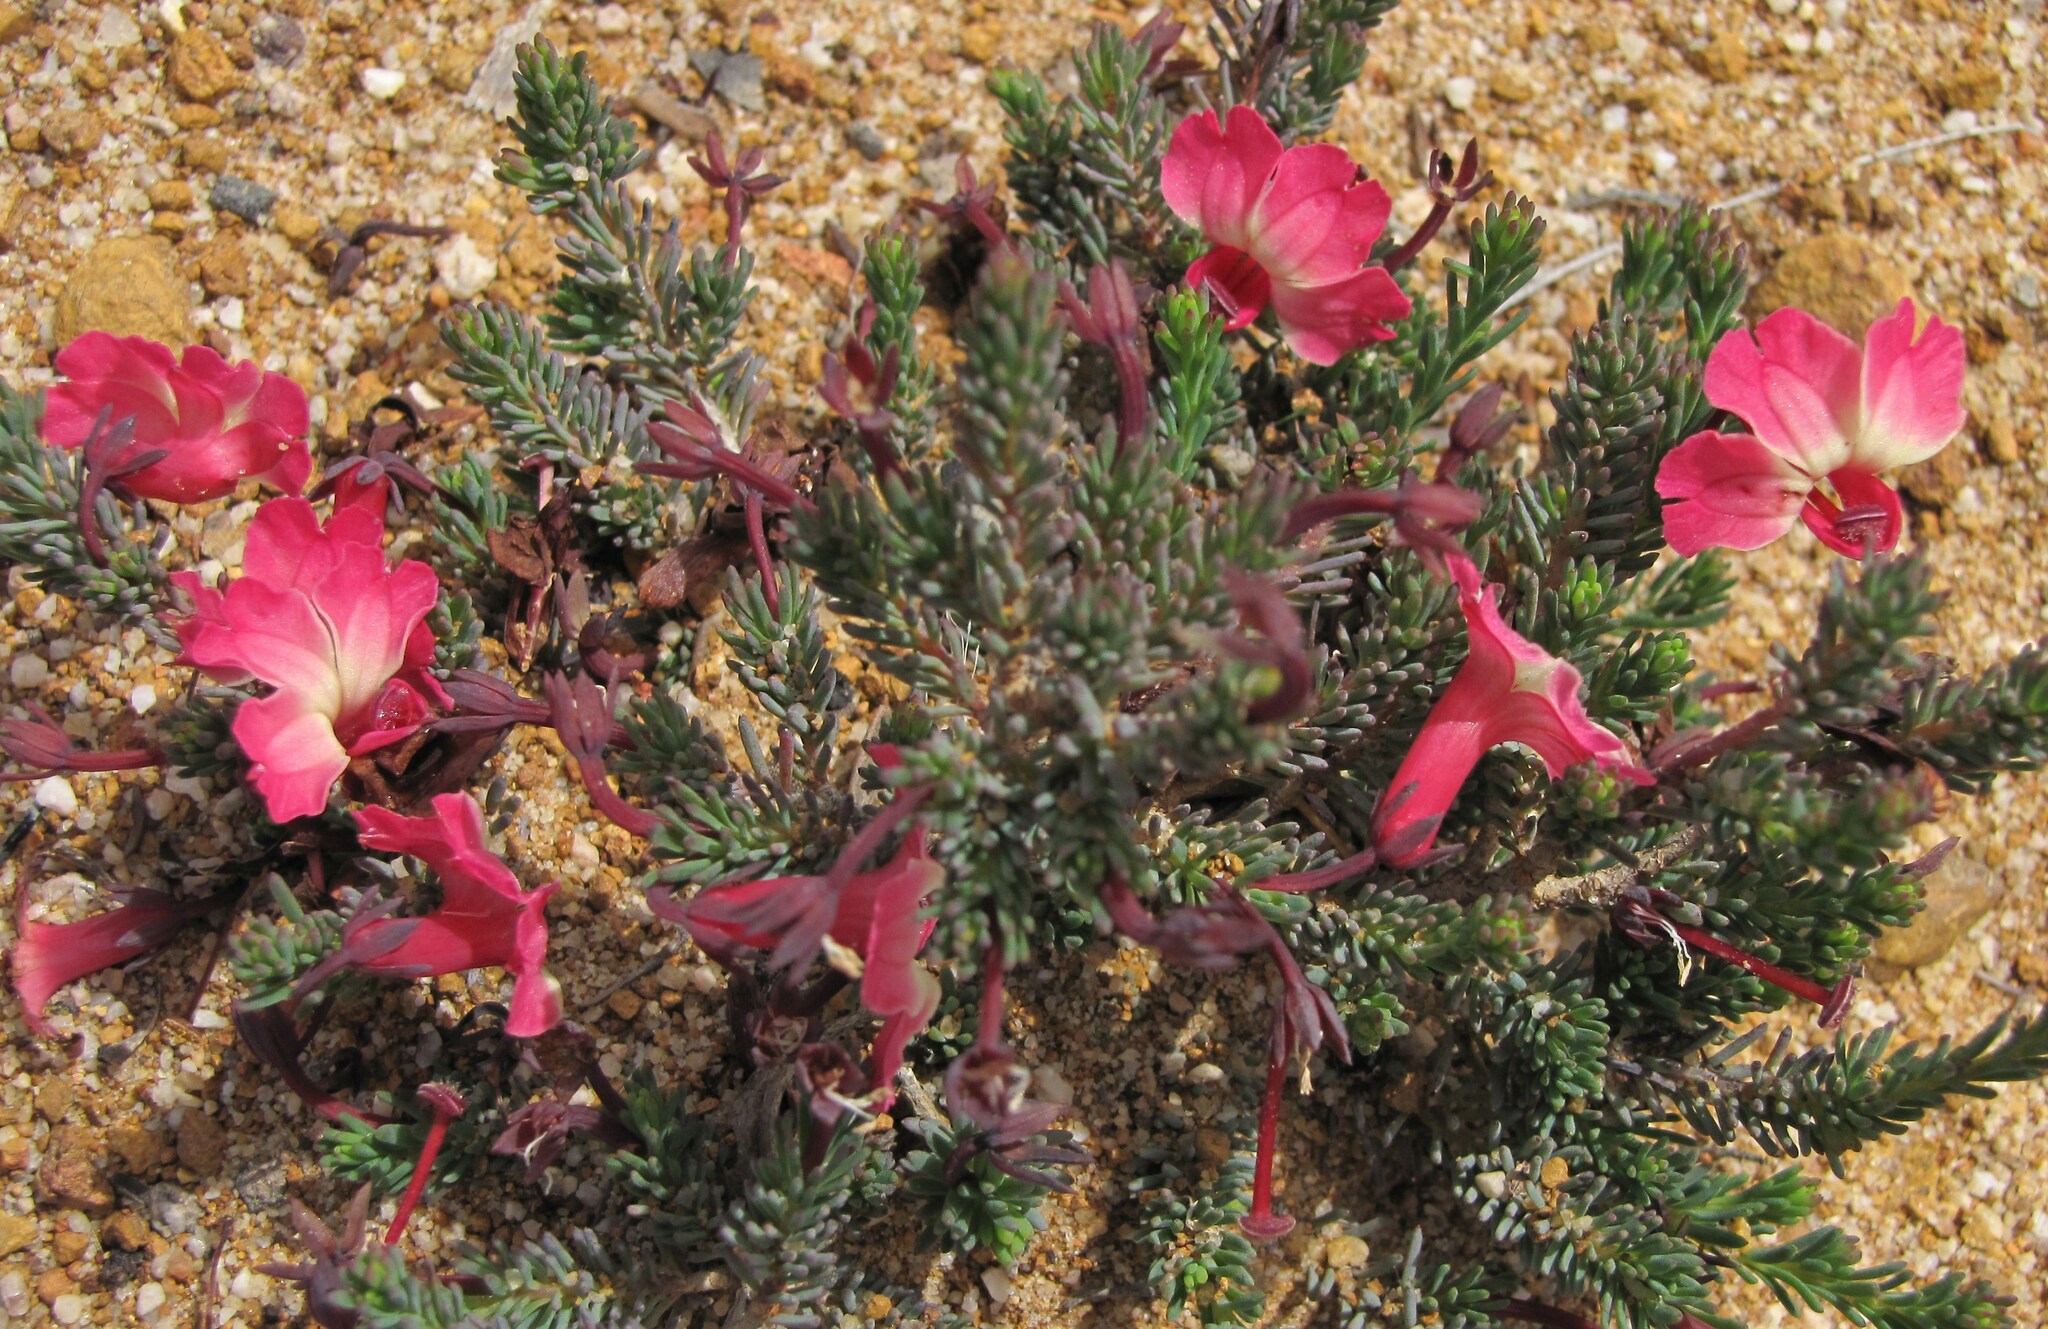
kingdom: Plantae
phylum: Tracheophyta
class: Magnoliopsida
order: Asterales
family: Goodeniaceae
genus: Lechenaultia
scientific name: Lechenaultia formosa
